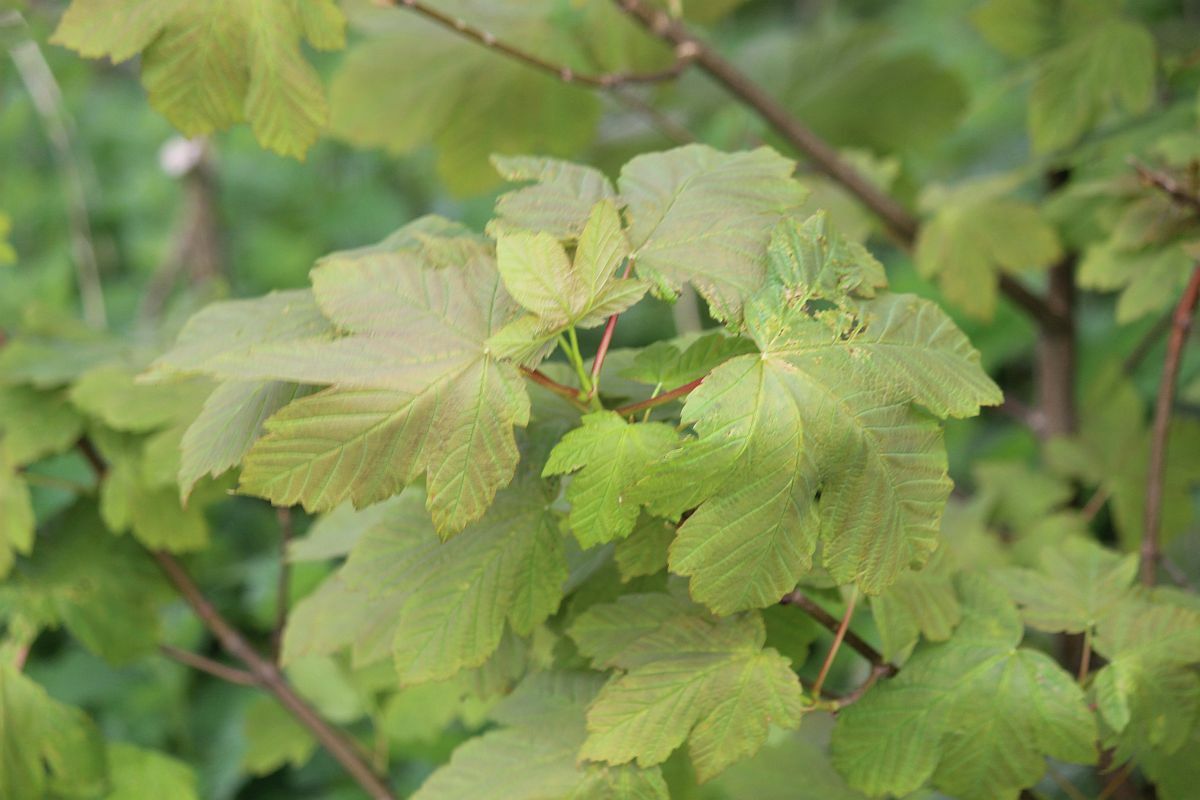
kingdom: Plantae
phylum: Tracheophyta
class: Magnoliopsida
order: Sapindales
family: Sapindaceae
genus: Acer
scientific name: Acer pseudoplatanus
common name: Sycamore
